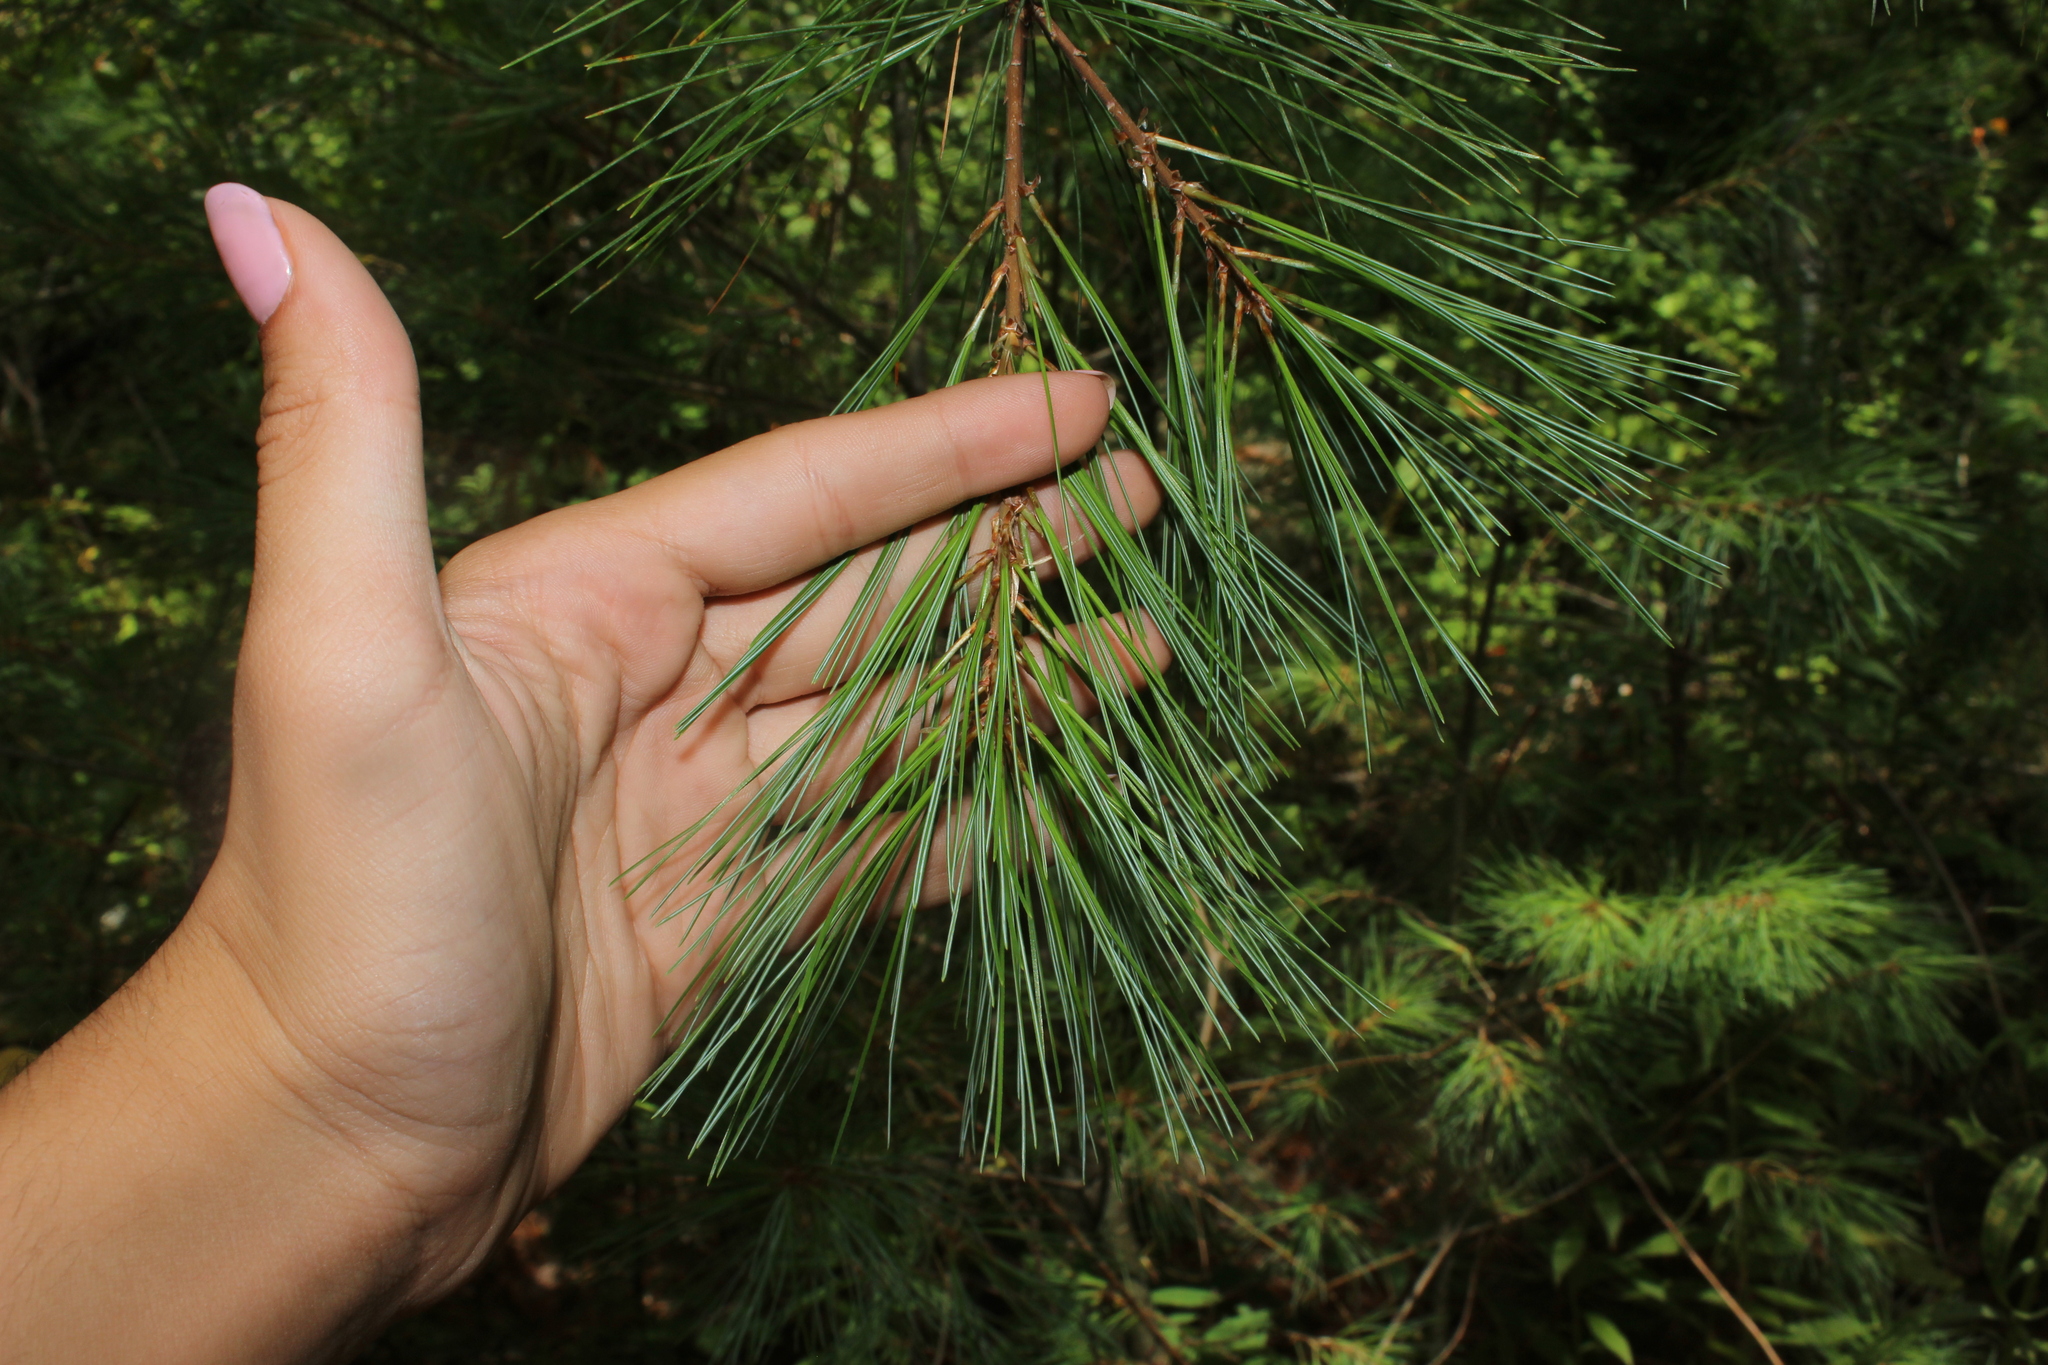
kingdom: Plantae
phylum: Tracheophyta
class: Pinopsida
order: Pinales
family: Pinaceae
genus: Pinus
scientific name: Pinus strobus
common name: Weymouth pine
